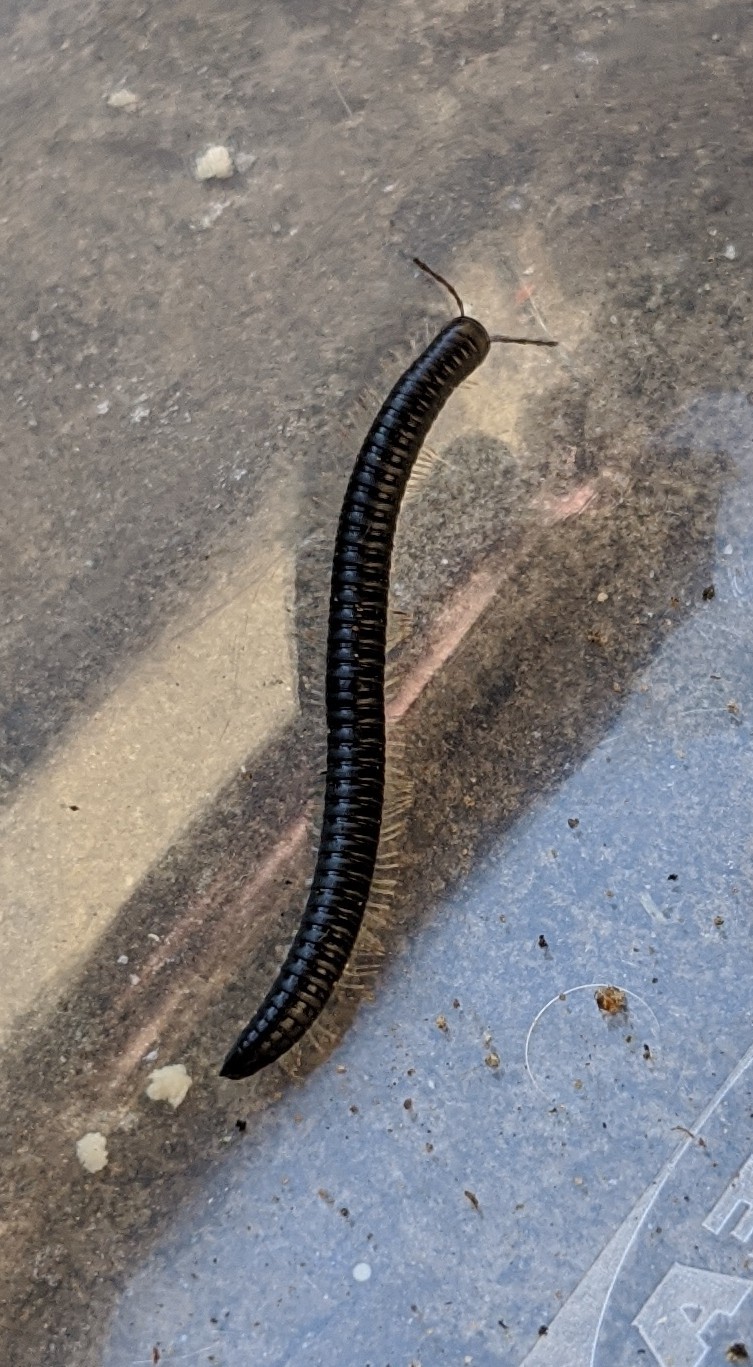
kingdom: Animalia
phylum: Arthropoda
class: Diplopoda
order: Julida
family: Julidae
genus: Tachypodoiulus
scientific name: Tachypodoiulus niger
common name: White-legged snake millipede
